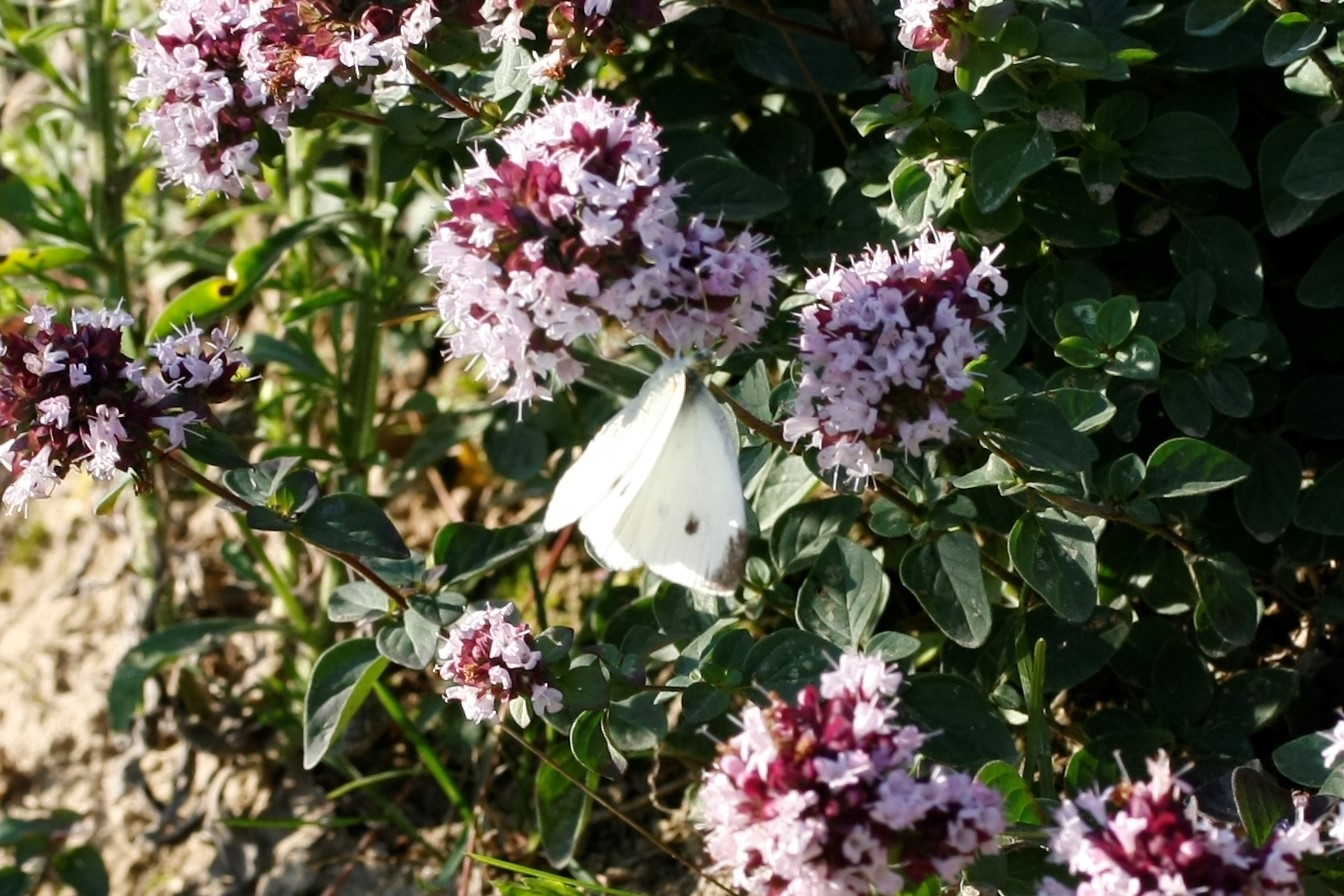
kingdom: Animalia
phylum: Arthropoda
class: Insecta
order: Lepidoptera
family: Pieridae
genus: Pieris
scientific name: Pieris rapae
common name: Small white
